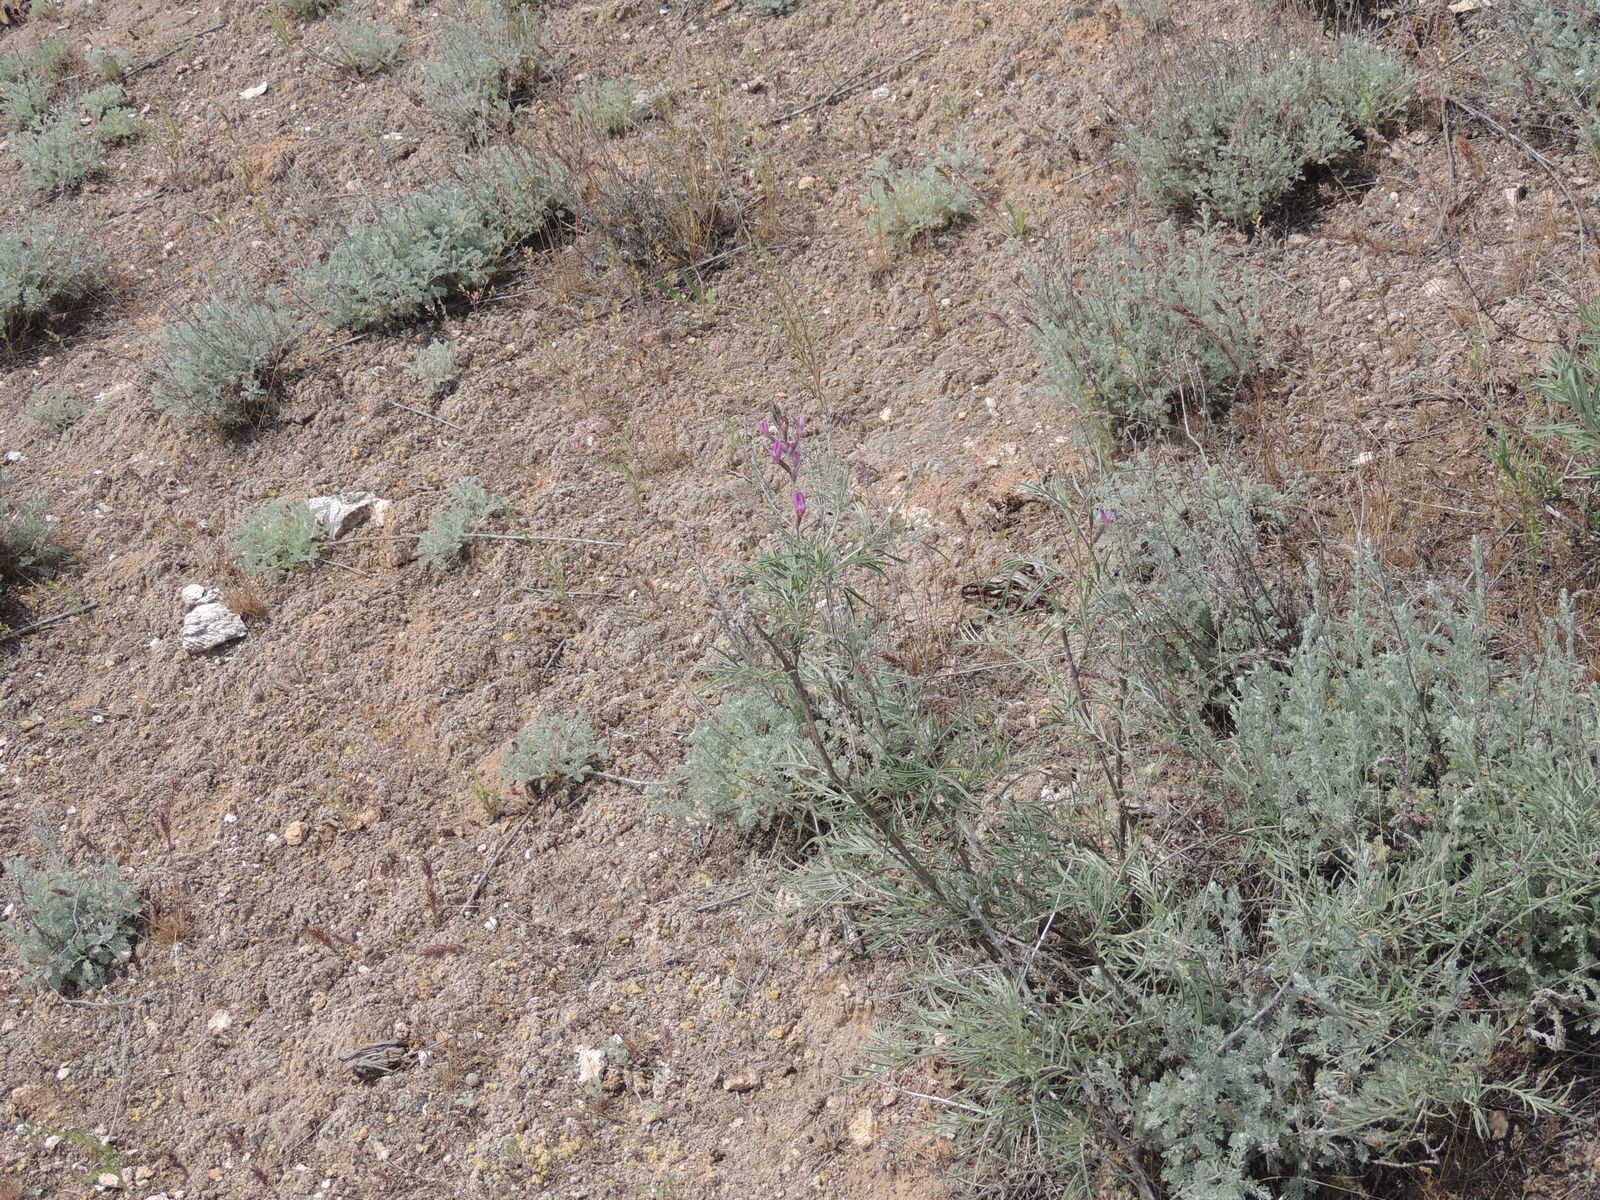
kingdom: Plantae
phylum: Tracheophyta
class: Magnoliopsida
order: Fabales
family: Fabaceae
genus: Astragalus
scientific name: Astragalus brachylobus
